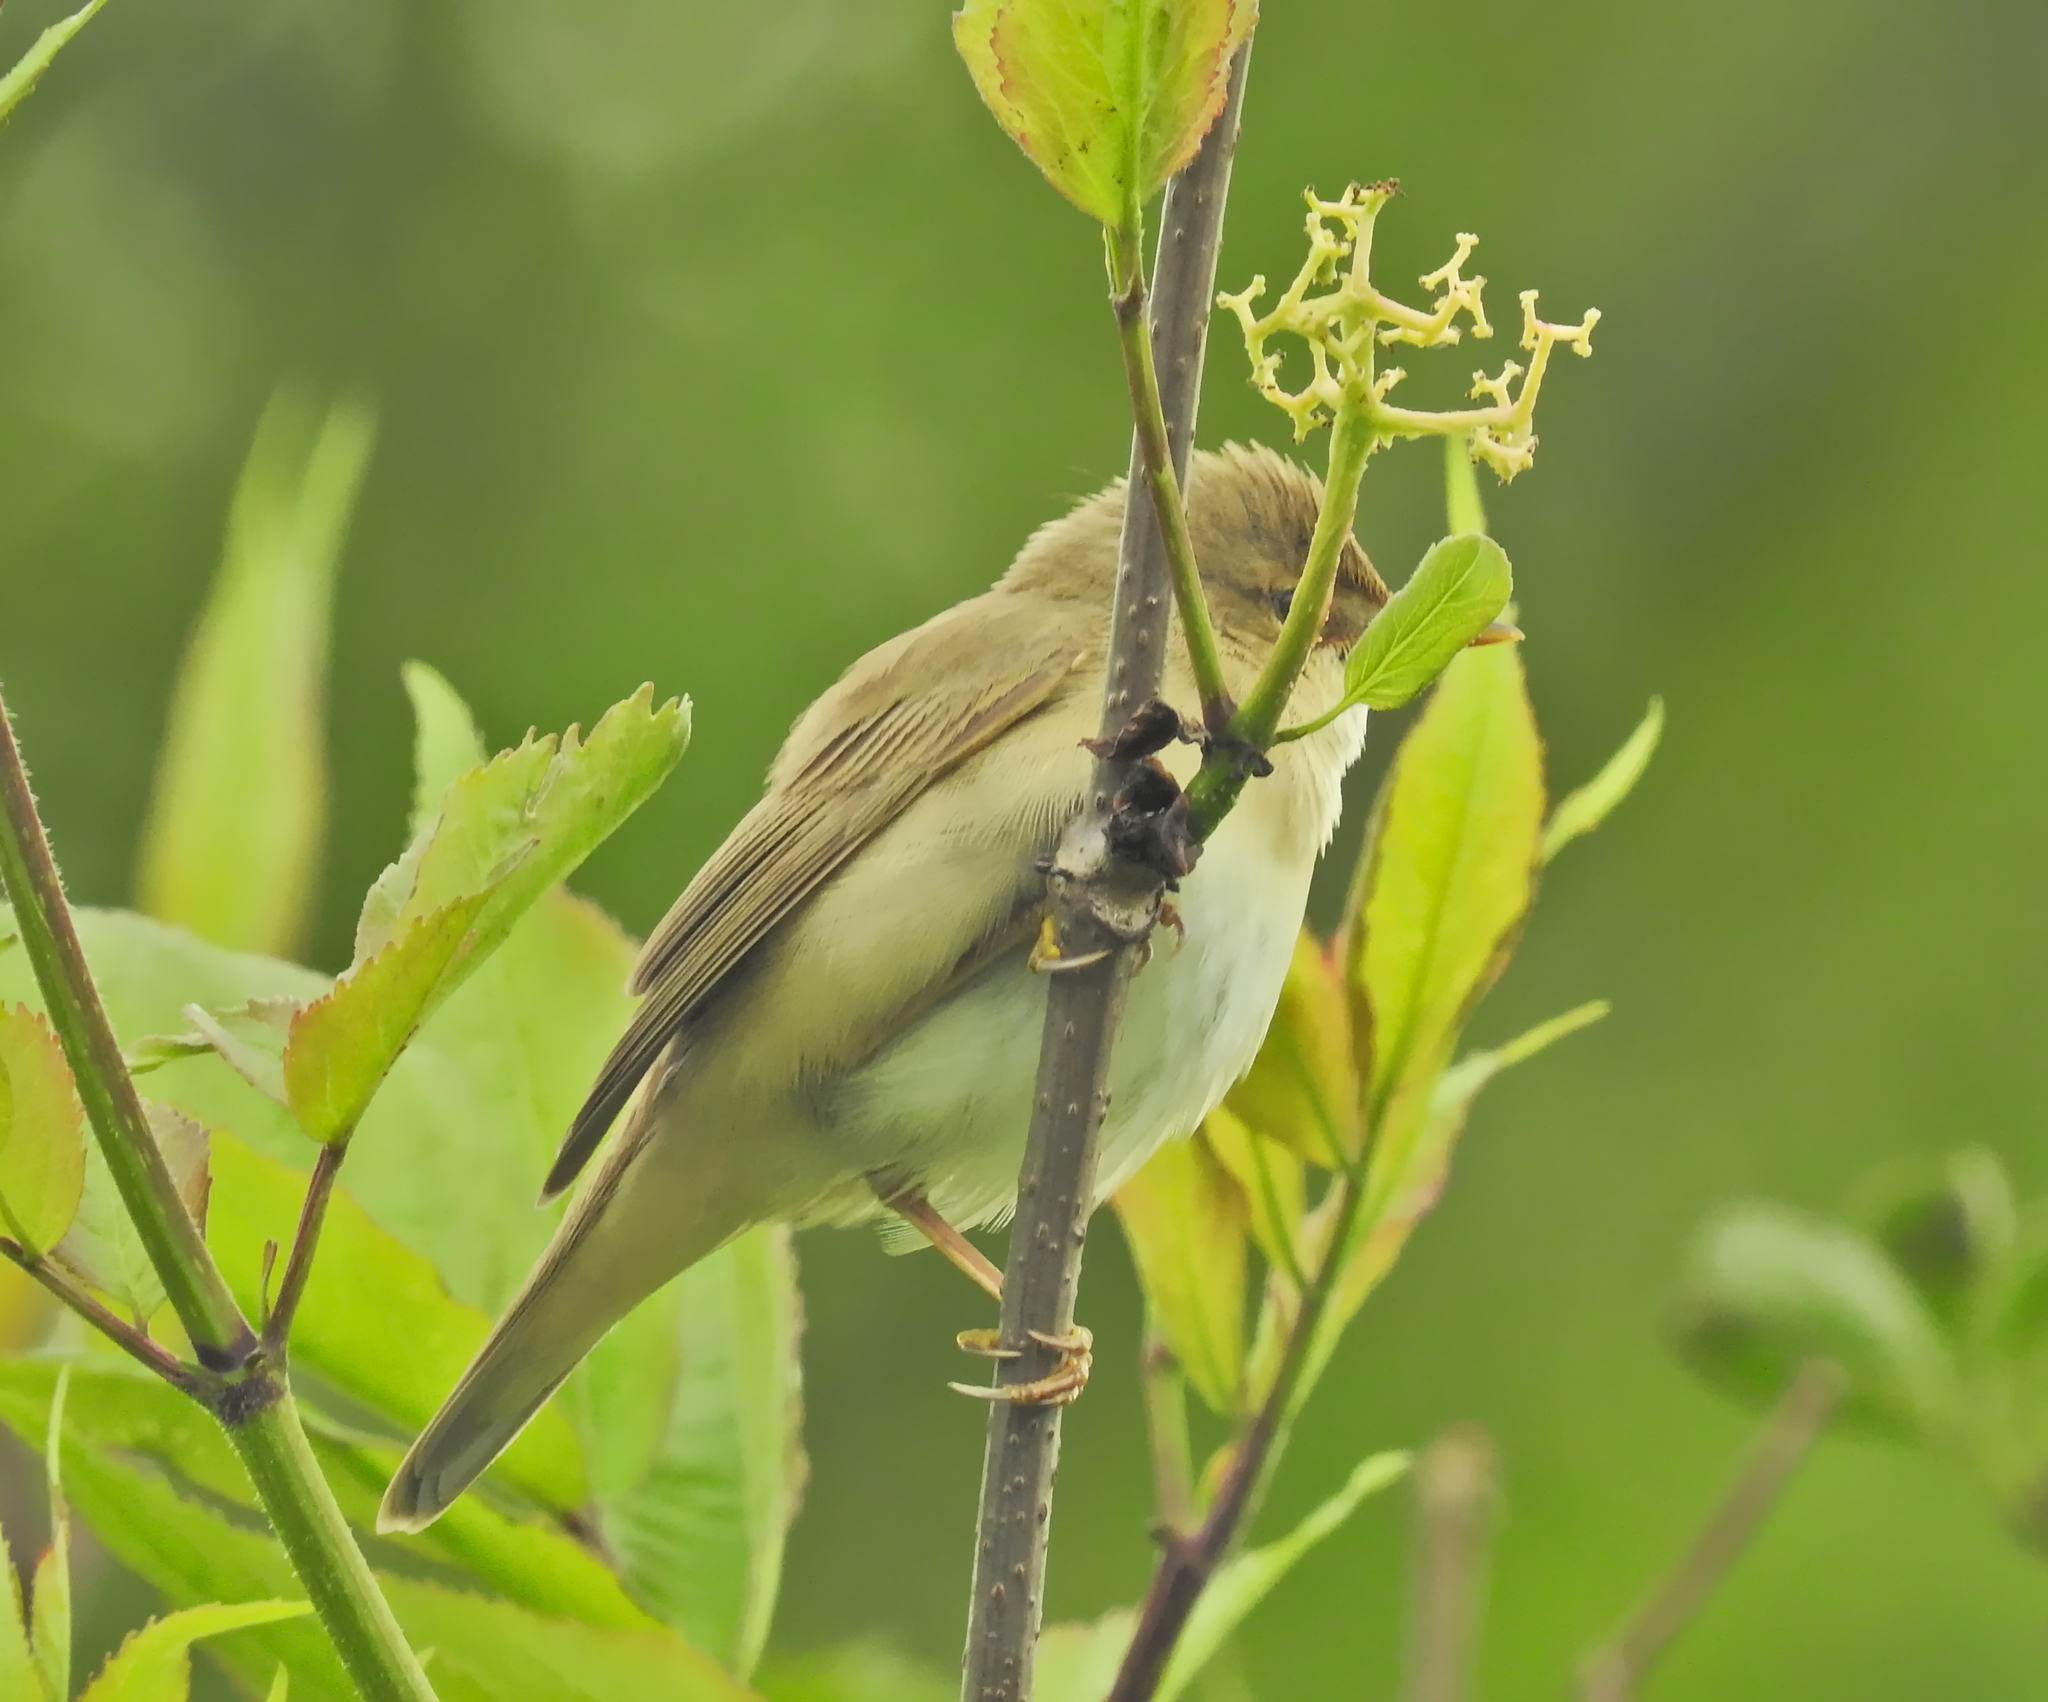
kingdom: Animalia
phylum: Chordata
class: Aves
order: Passeriformes
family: Acrocephalidae
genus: Acrocephalus
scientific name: Acrocephalus palustris
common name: Marsh warbler
